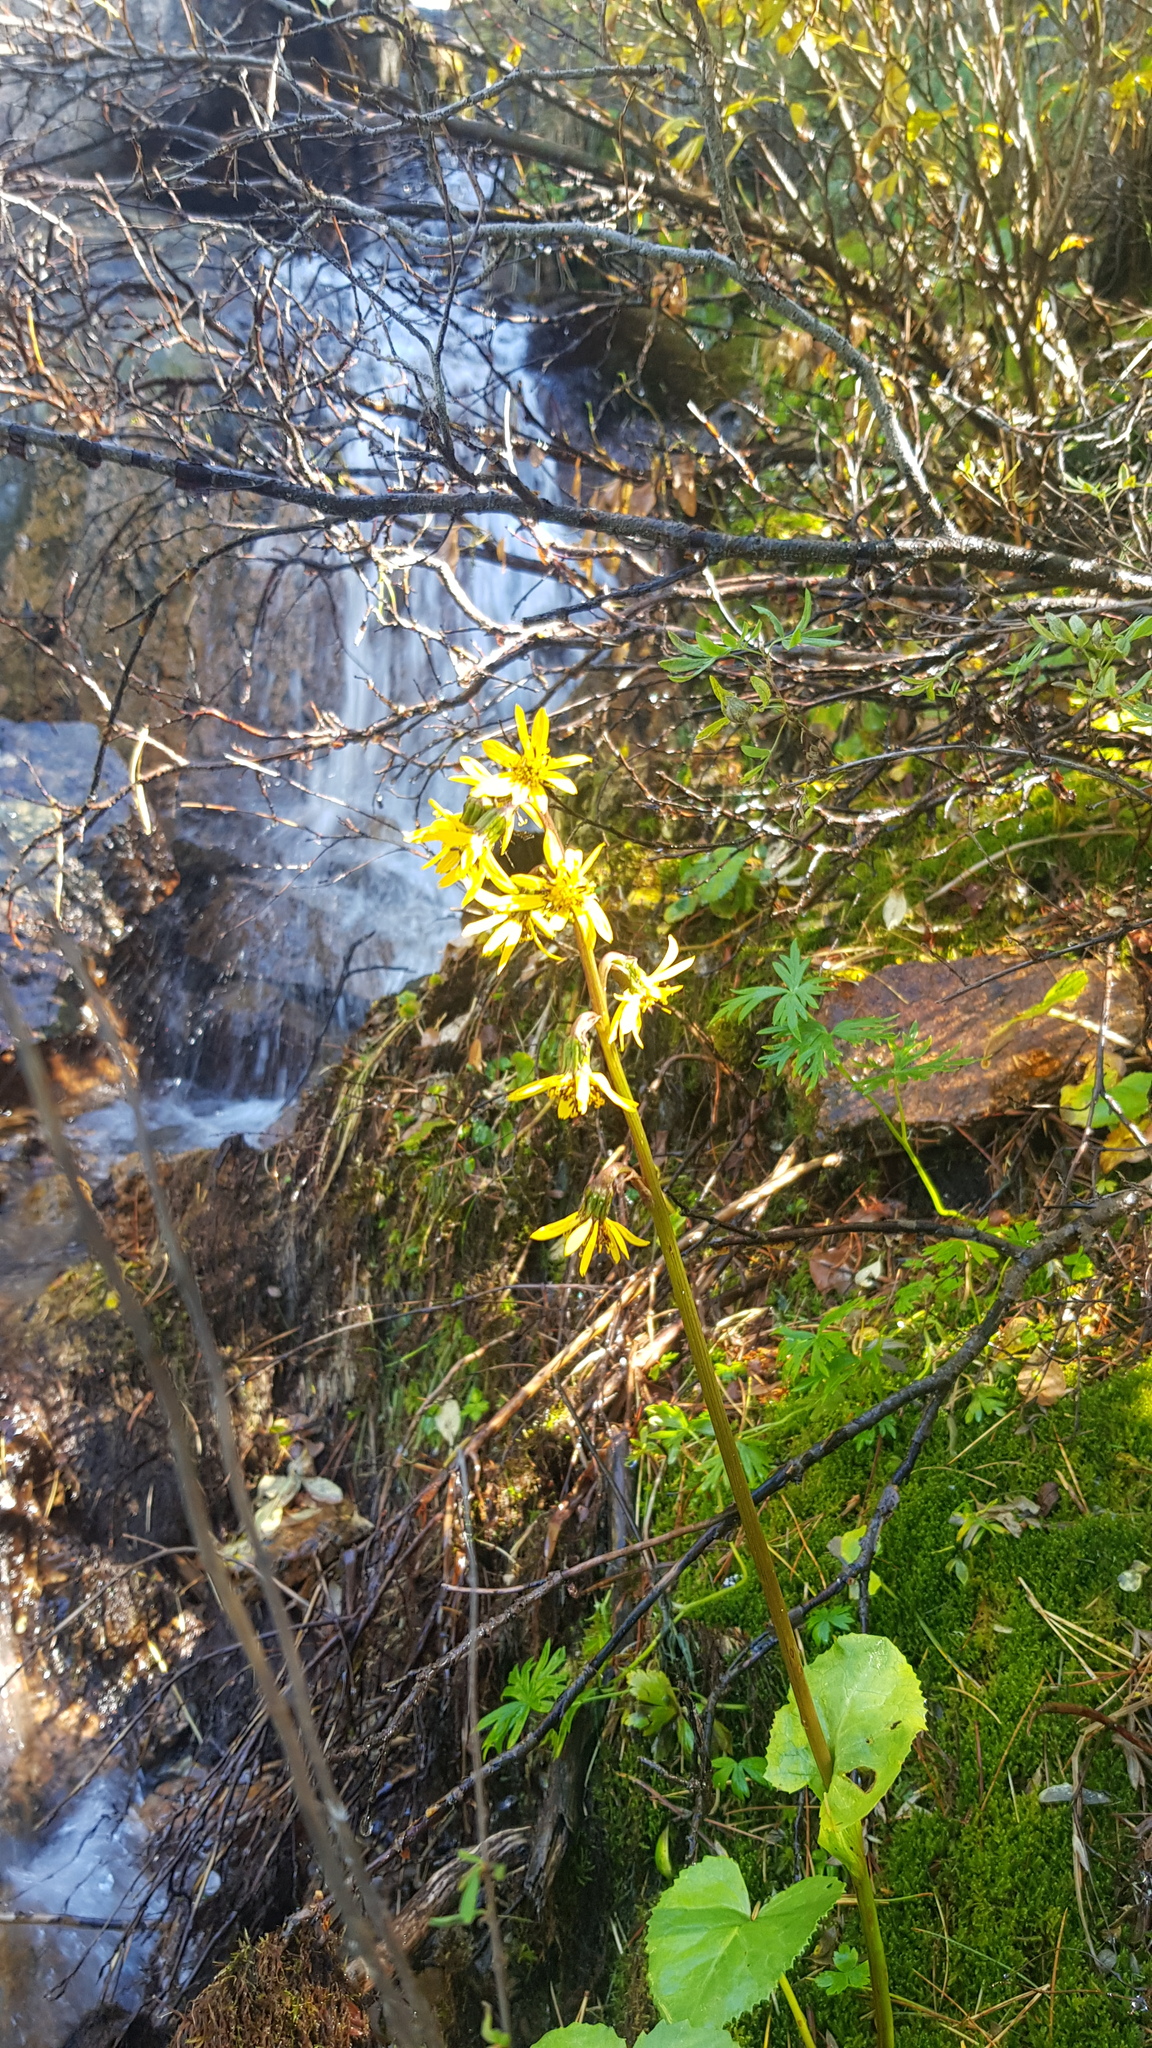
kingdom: Plantae
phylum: Tracheophyta
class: Magnoliopsida
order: Asterales
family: Asteraceae
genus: Ligularia
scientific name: Ligularia sibirica
